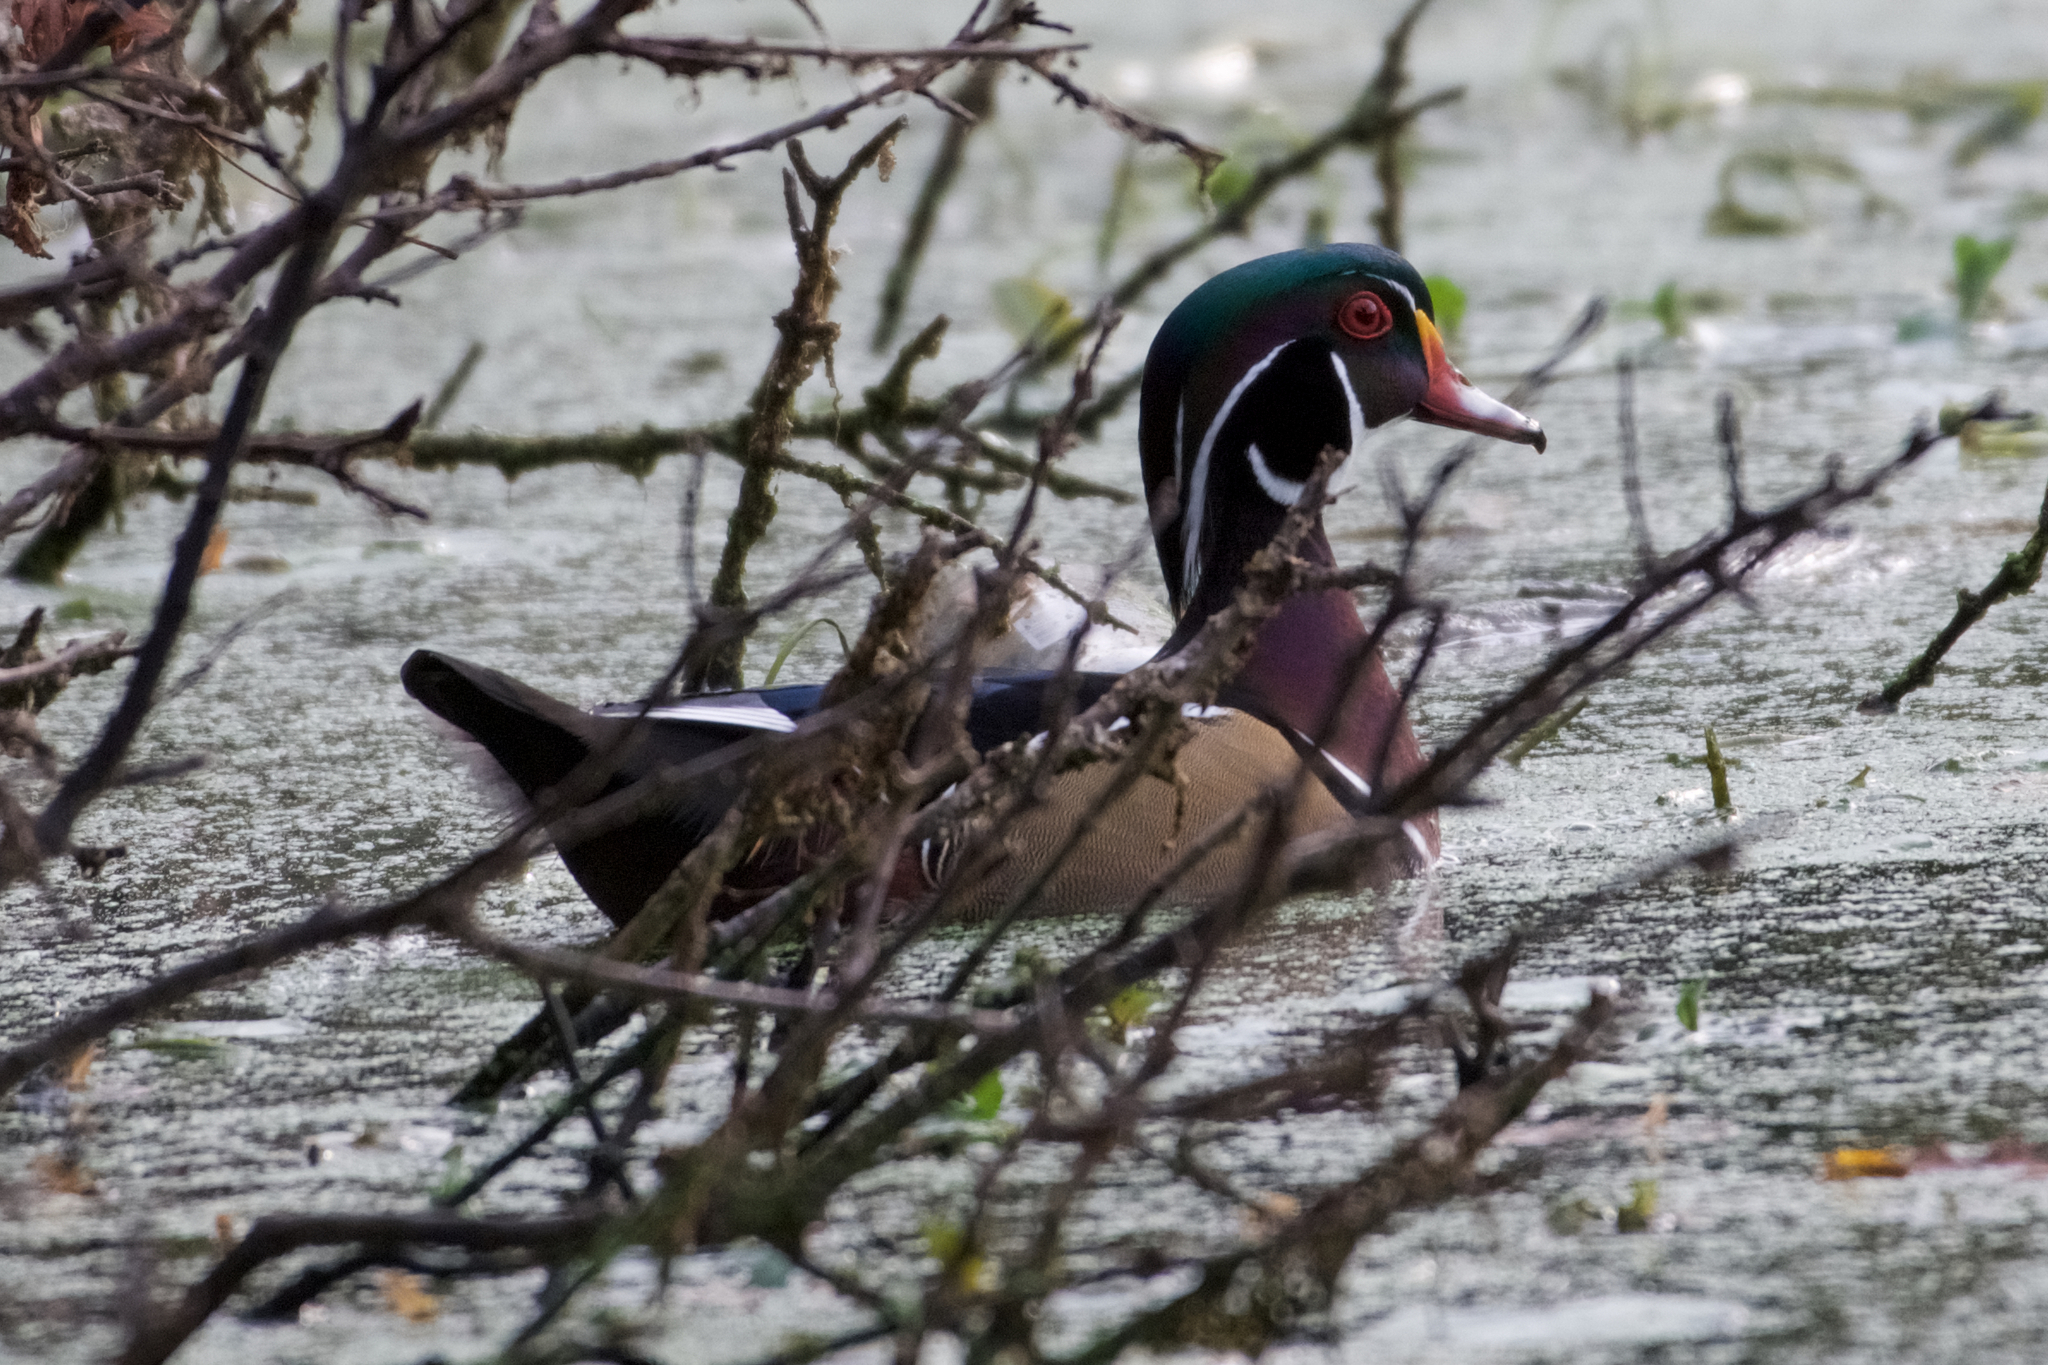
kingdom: Animalia
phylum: Chordata
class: Aves
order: Anseriformes
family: Anatidae
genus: Aix
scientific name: Aix sponsa
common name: Wood duck
